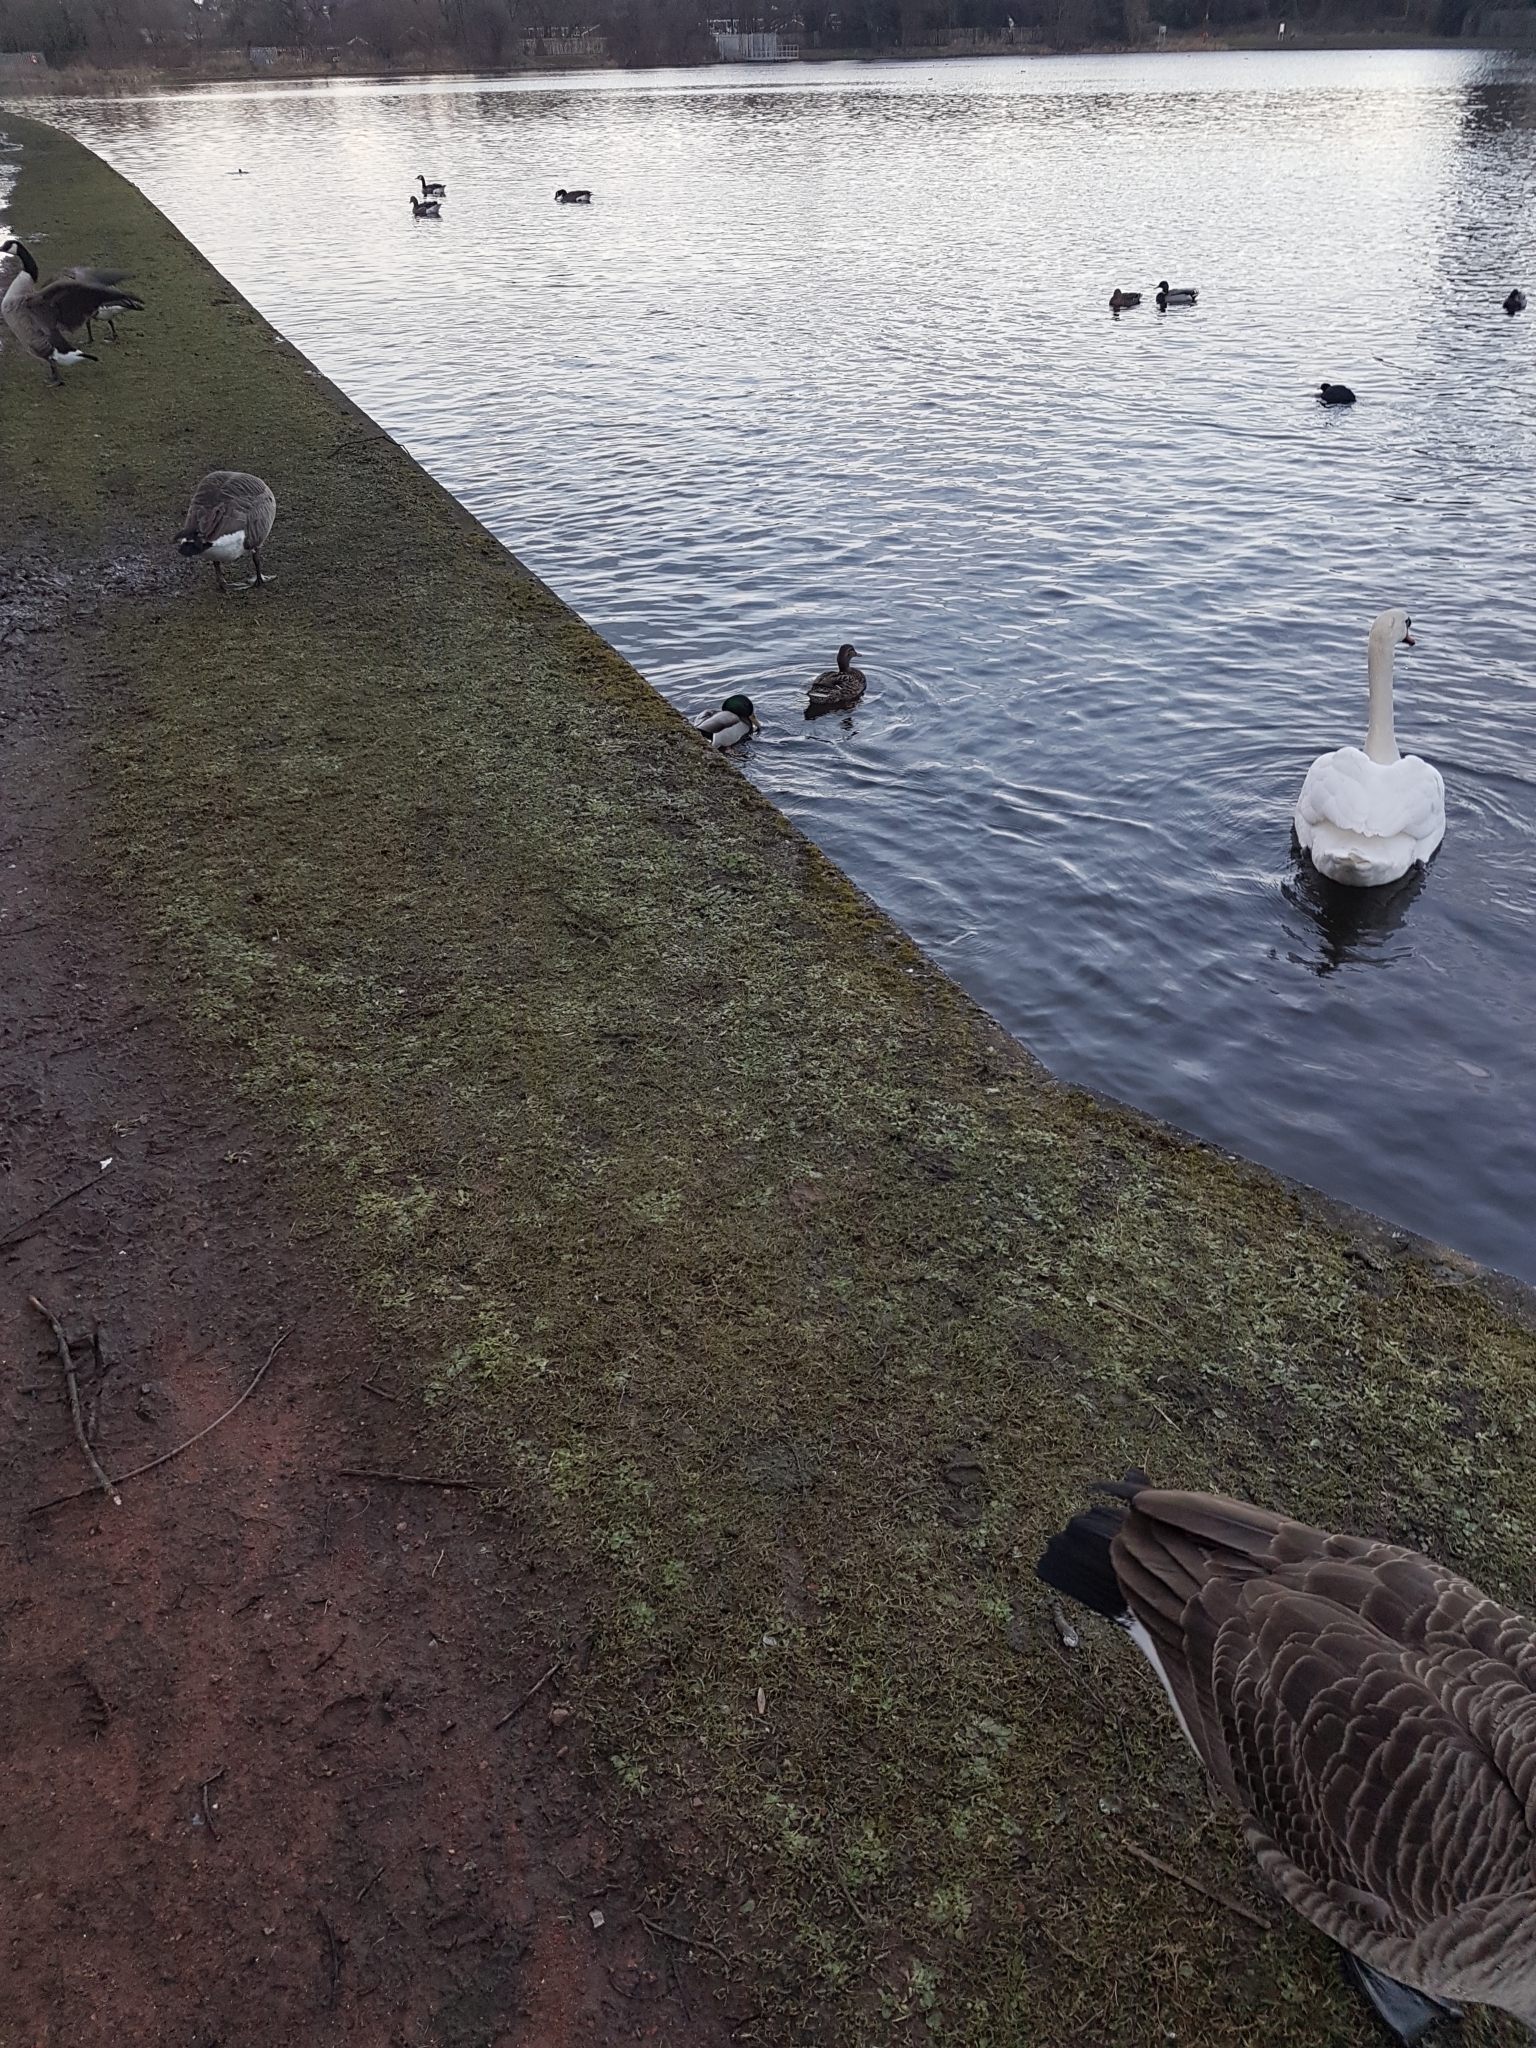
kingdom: Animalia
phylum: Chordata
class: Aves
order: Anseriformes
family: Anatidae
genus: Anas
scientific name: Anas platyrhynchos
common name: Mallard
